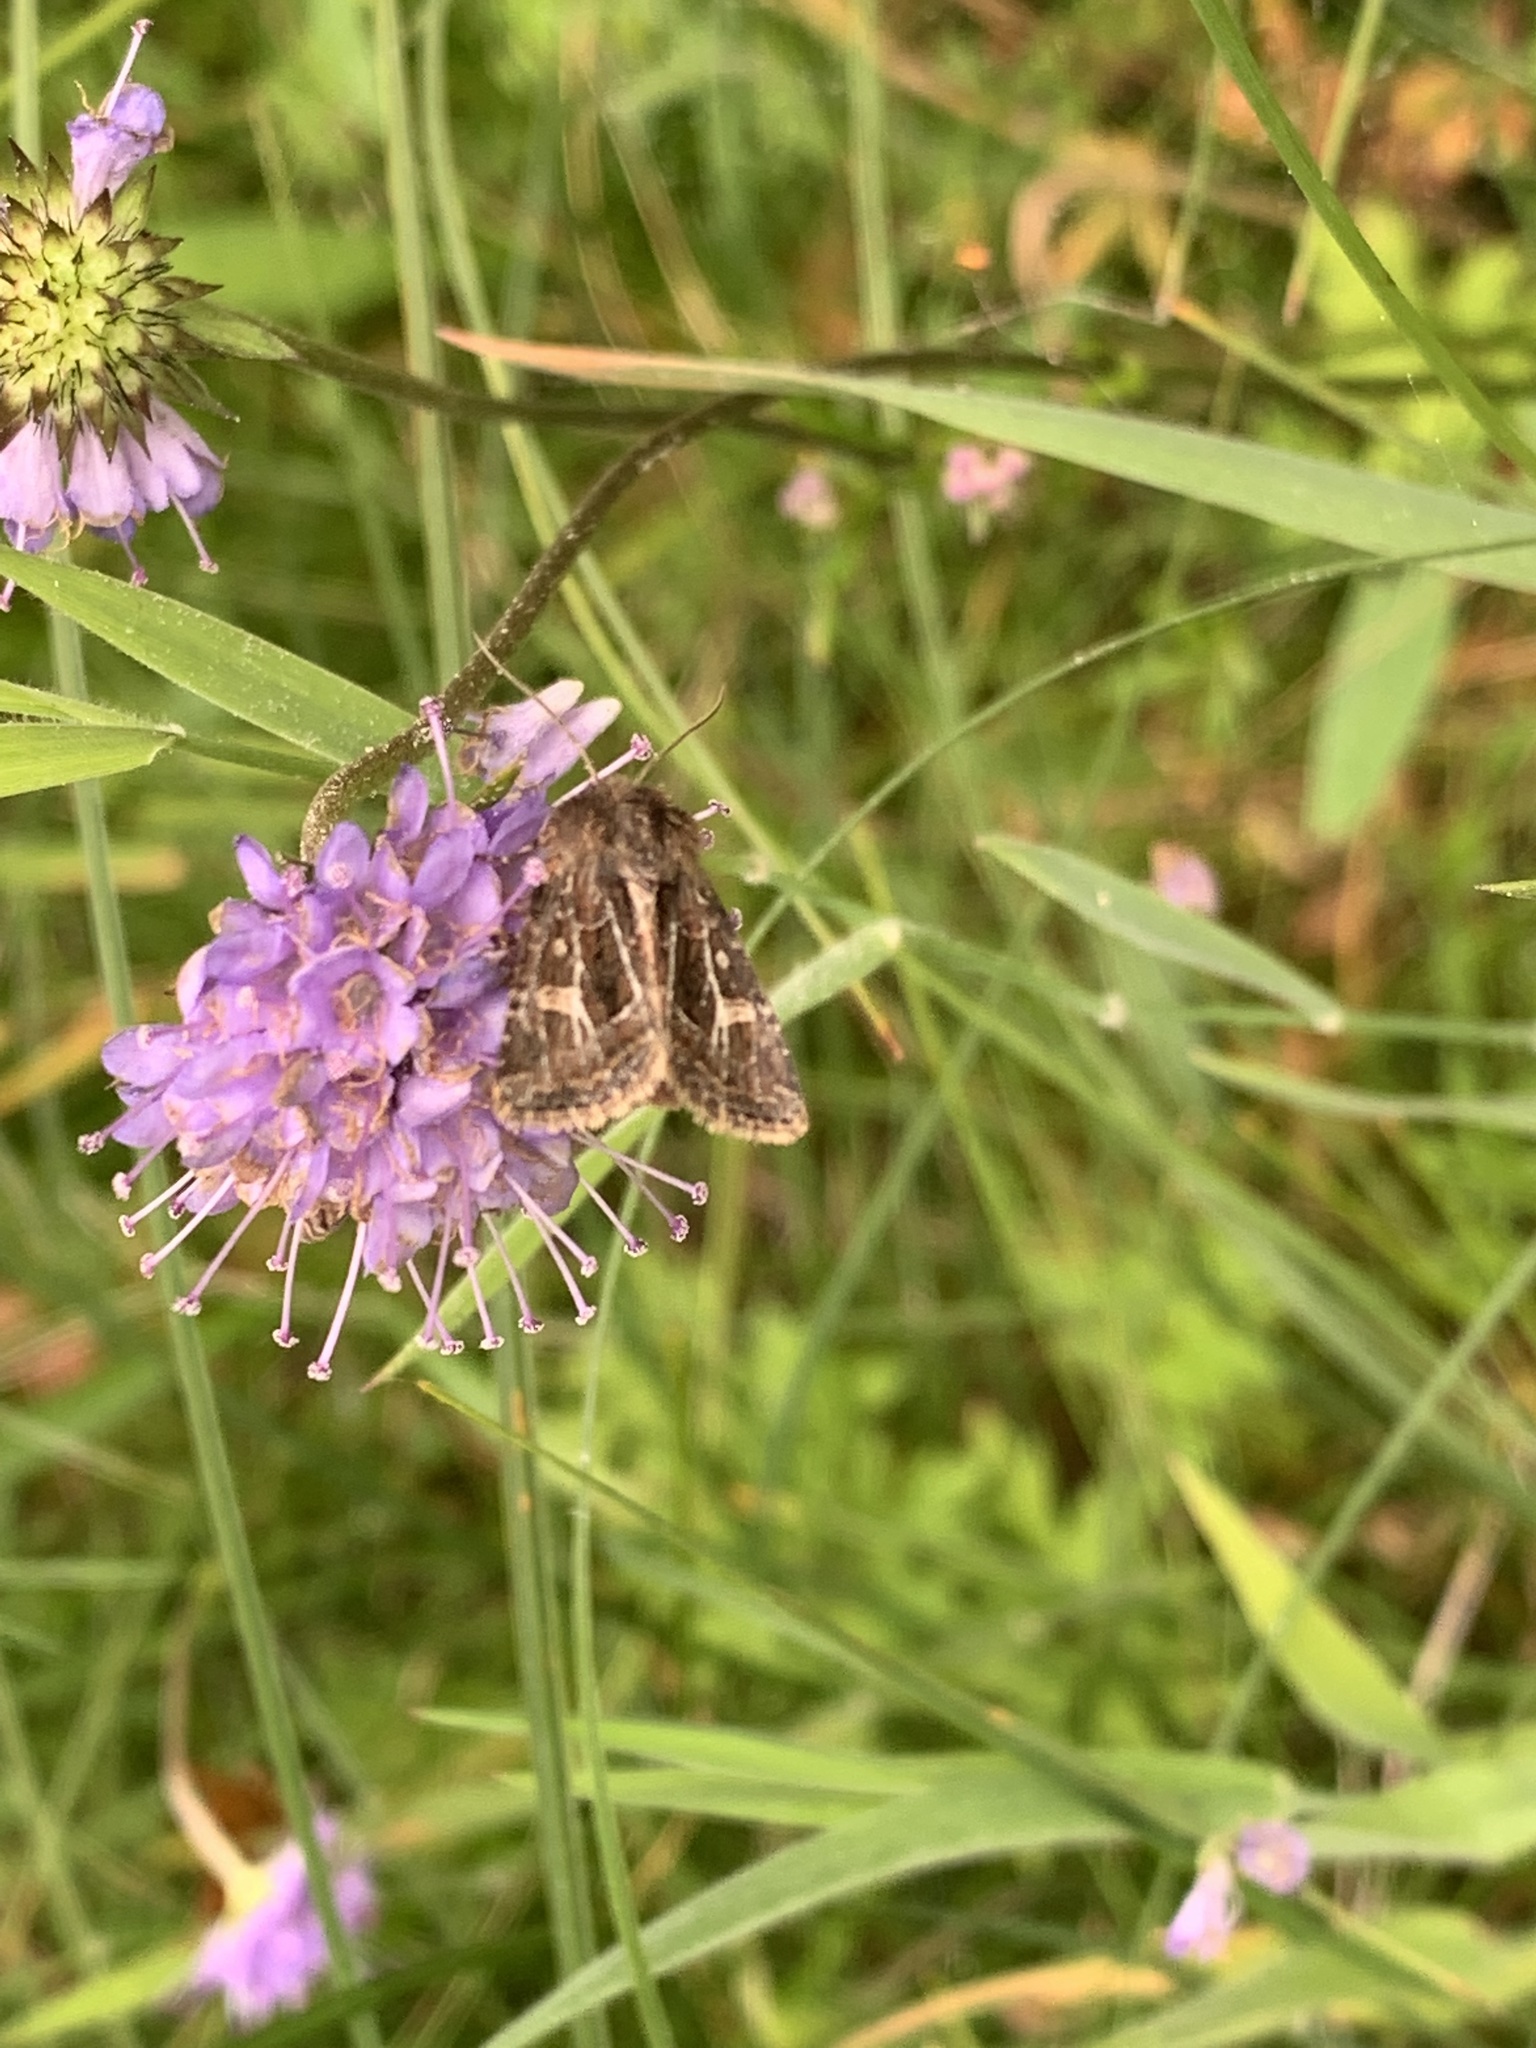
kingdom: Animalia
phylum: Arthropoda
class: Insecta
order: Lepidoptera
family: Noctuidae
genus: Celaena
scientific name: Celaena haworthii
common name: Haworth's minor
